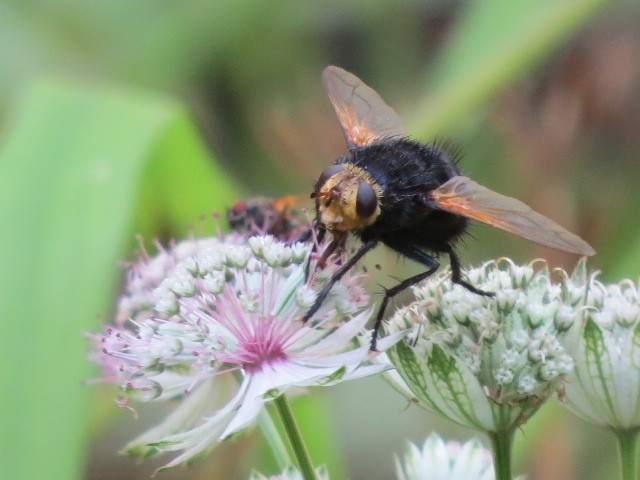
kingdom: Animalia
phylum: Arthropoda
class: Insecta
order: Diptera
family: Tachinidae
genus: Tachina
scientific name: Tachina grossa
